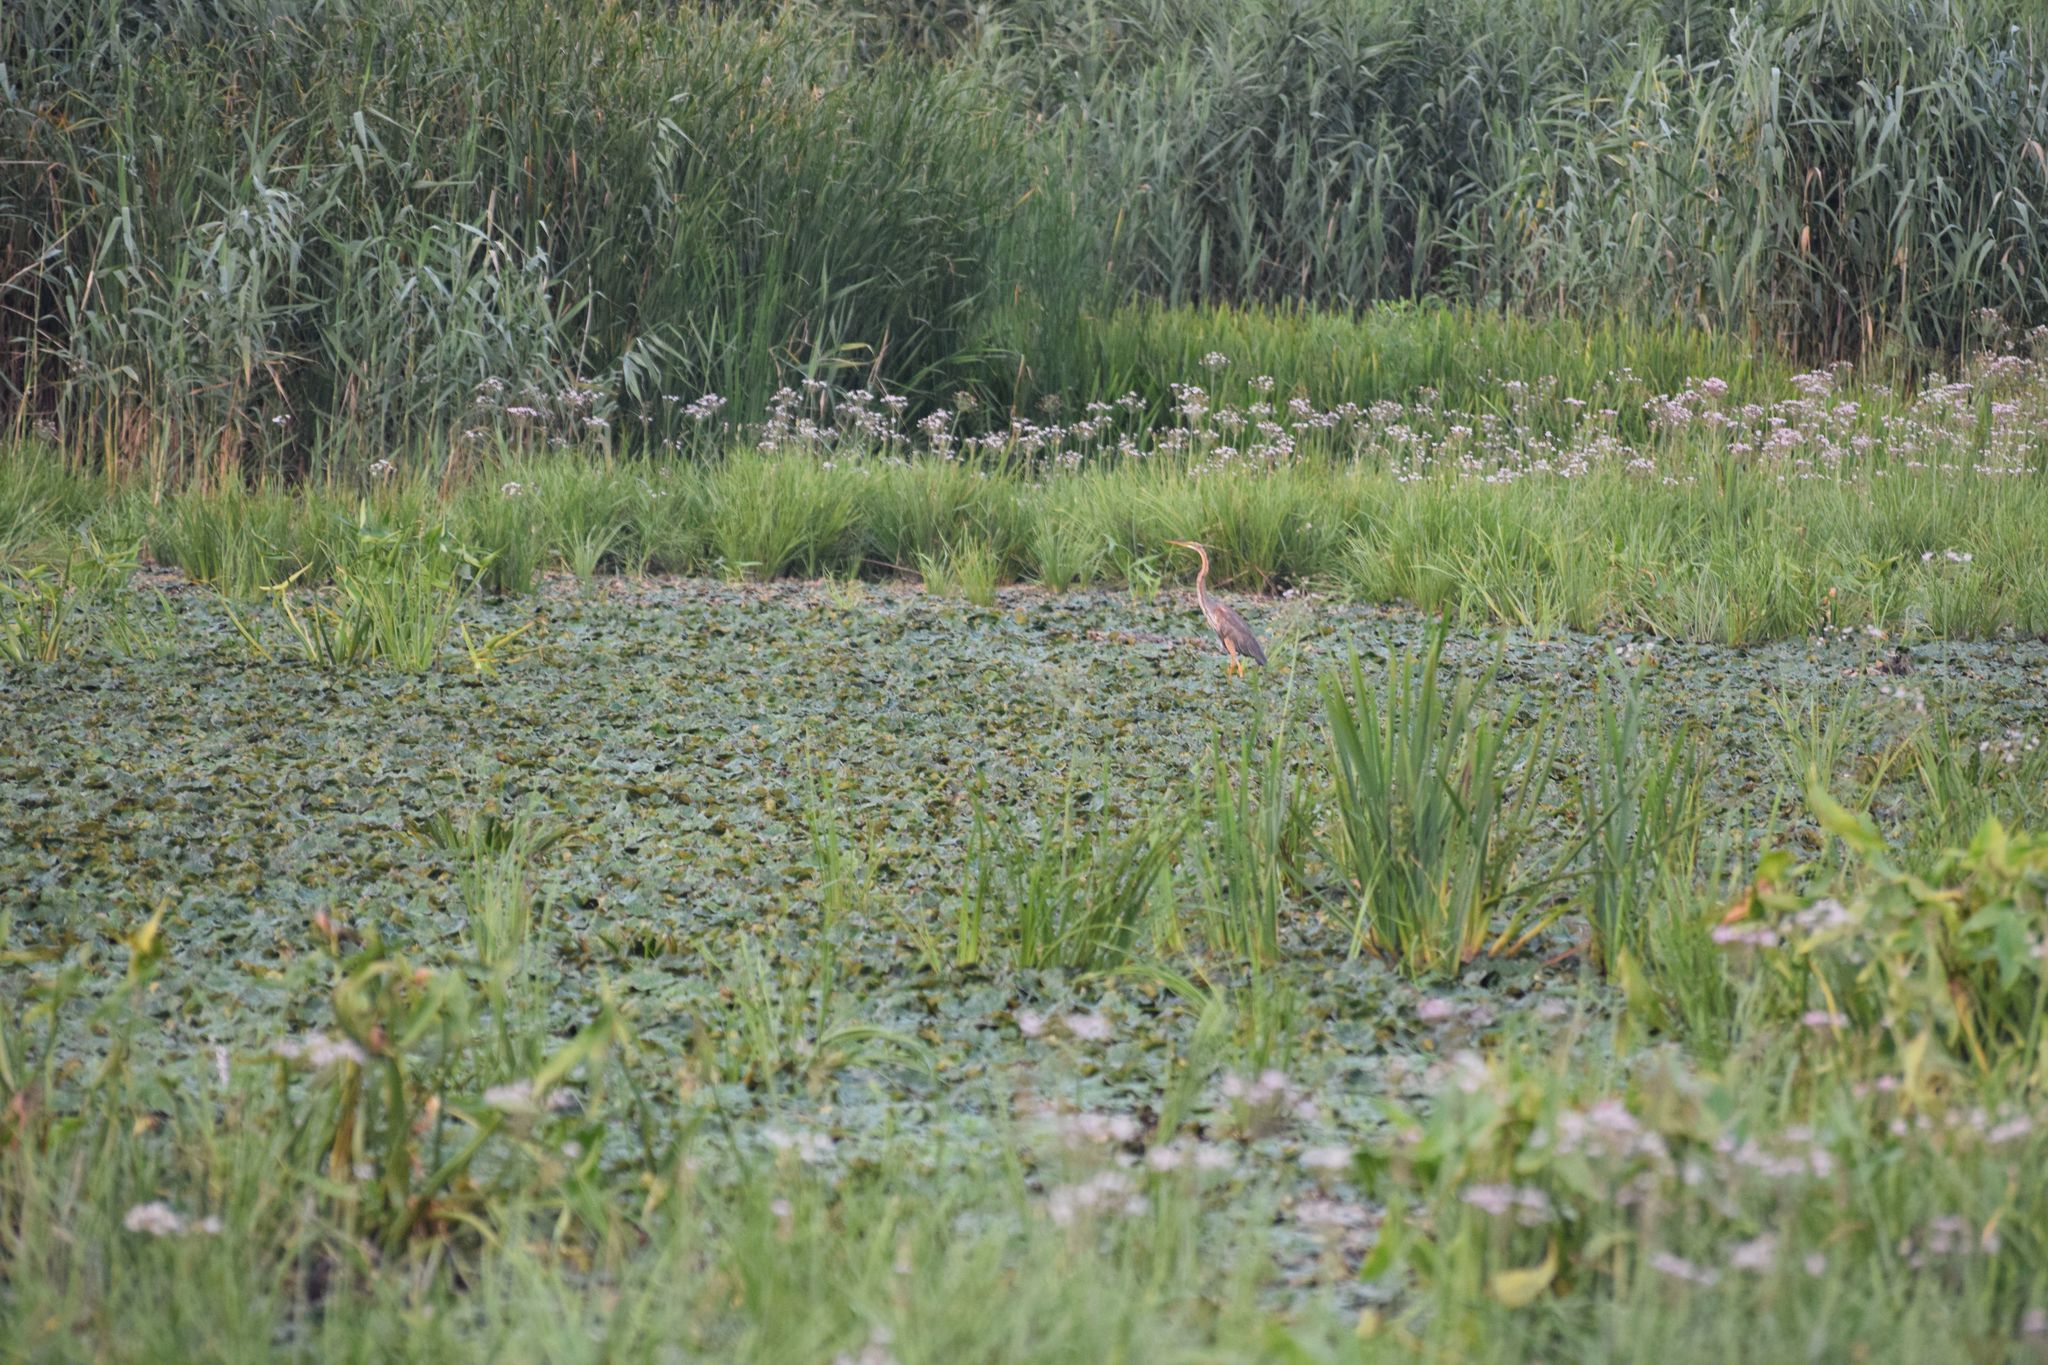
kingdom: Animalia
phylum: Chordata
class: Aves
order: Pelecaniformes
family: Ardeidae
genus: Ardea
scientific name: Ardea purpurea
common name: Purple heron
